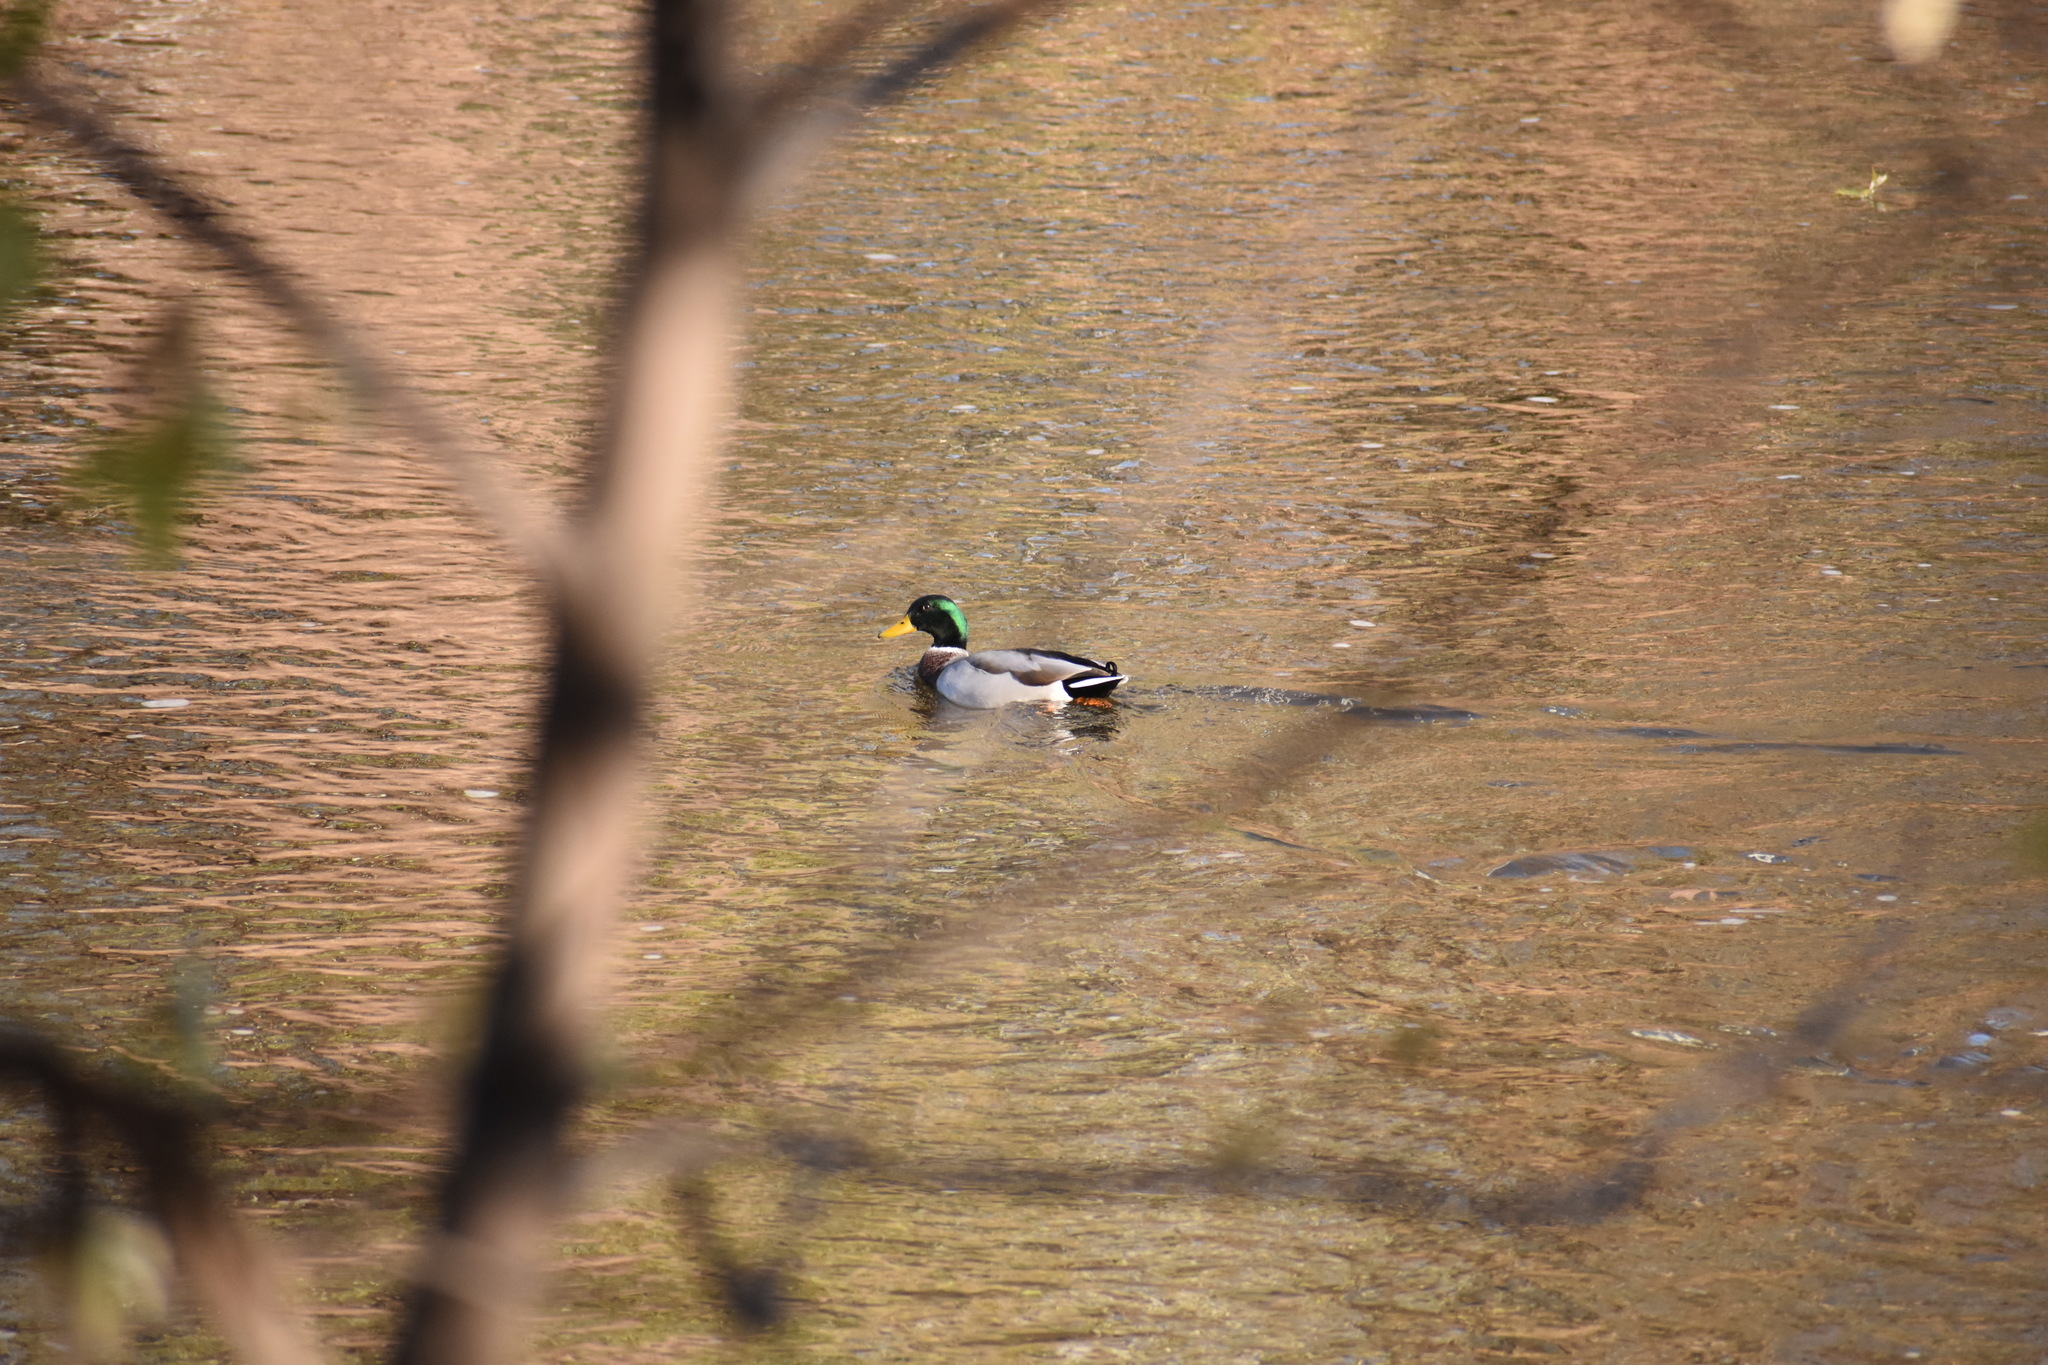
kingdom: Animalia
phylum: Chordata
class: Aves
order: Anseriformes
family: Anatidae
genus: Anas
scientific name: Anas platyrhynchos
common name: Mallard
